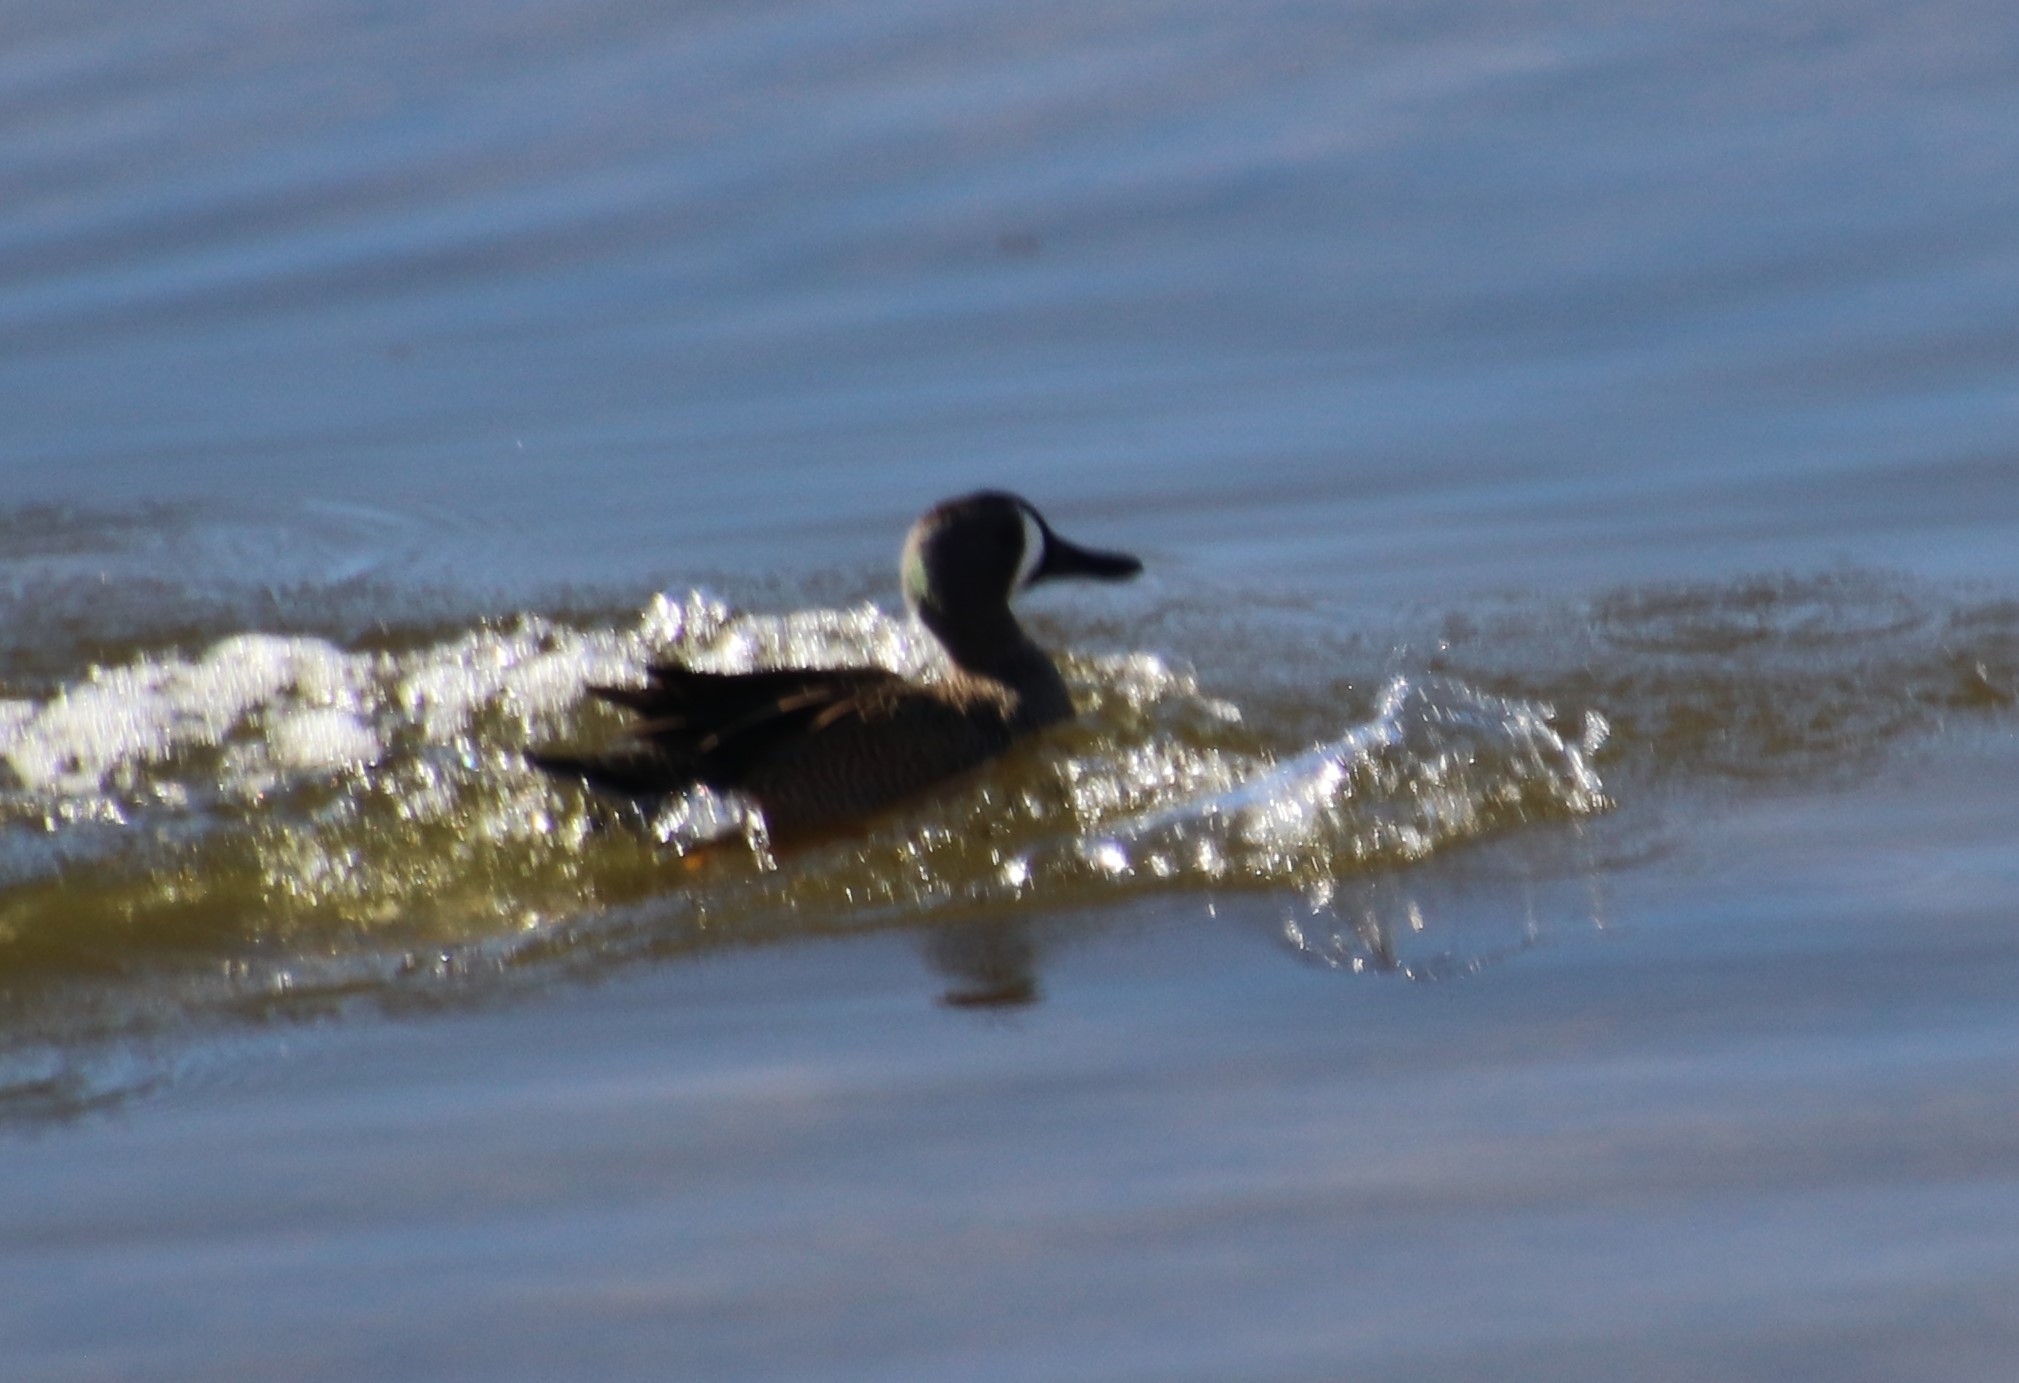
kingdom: Animalia
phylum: Chordata
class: Aves
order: Anseriformes
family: Anatidae
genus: Spatula
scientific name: Spatula discors
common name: Blue-winged teal
